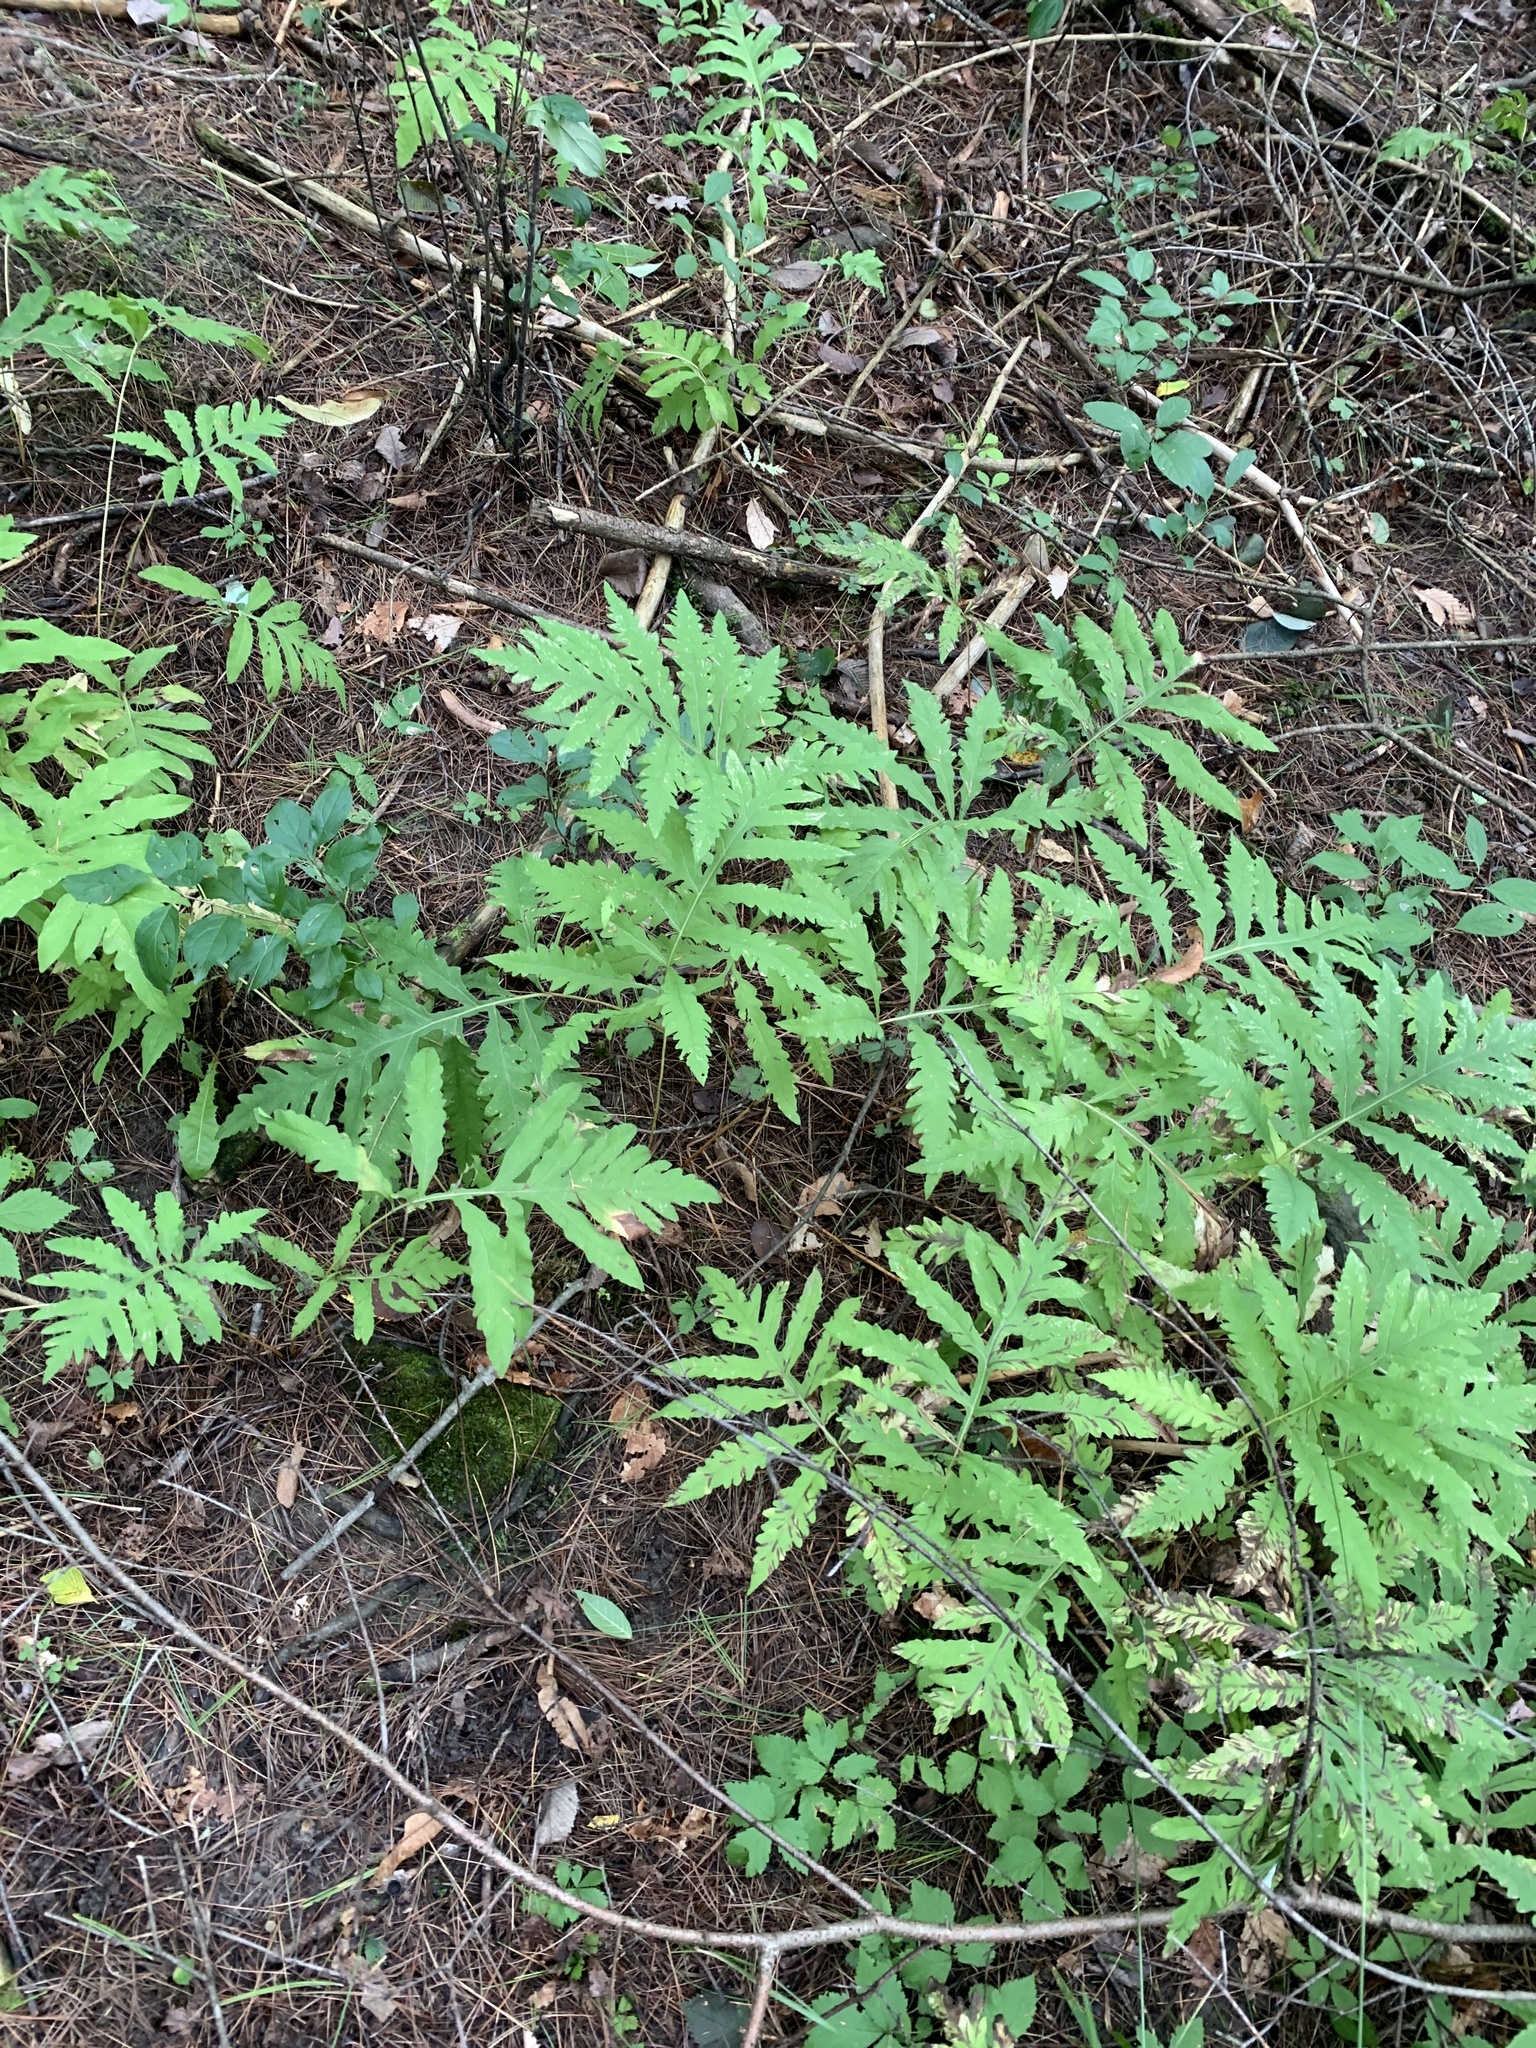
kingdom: Plantae
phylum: Tracheophyta
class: Polypodiopsida
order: Polypodiales
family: Onocleaceae
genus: Onoclea
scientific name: Onoclea sensibilis
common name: Sensitive fern
